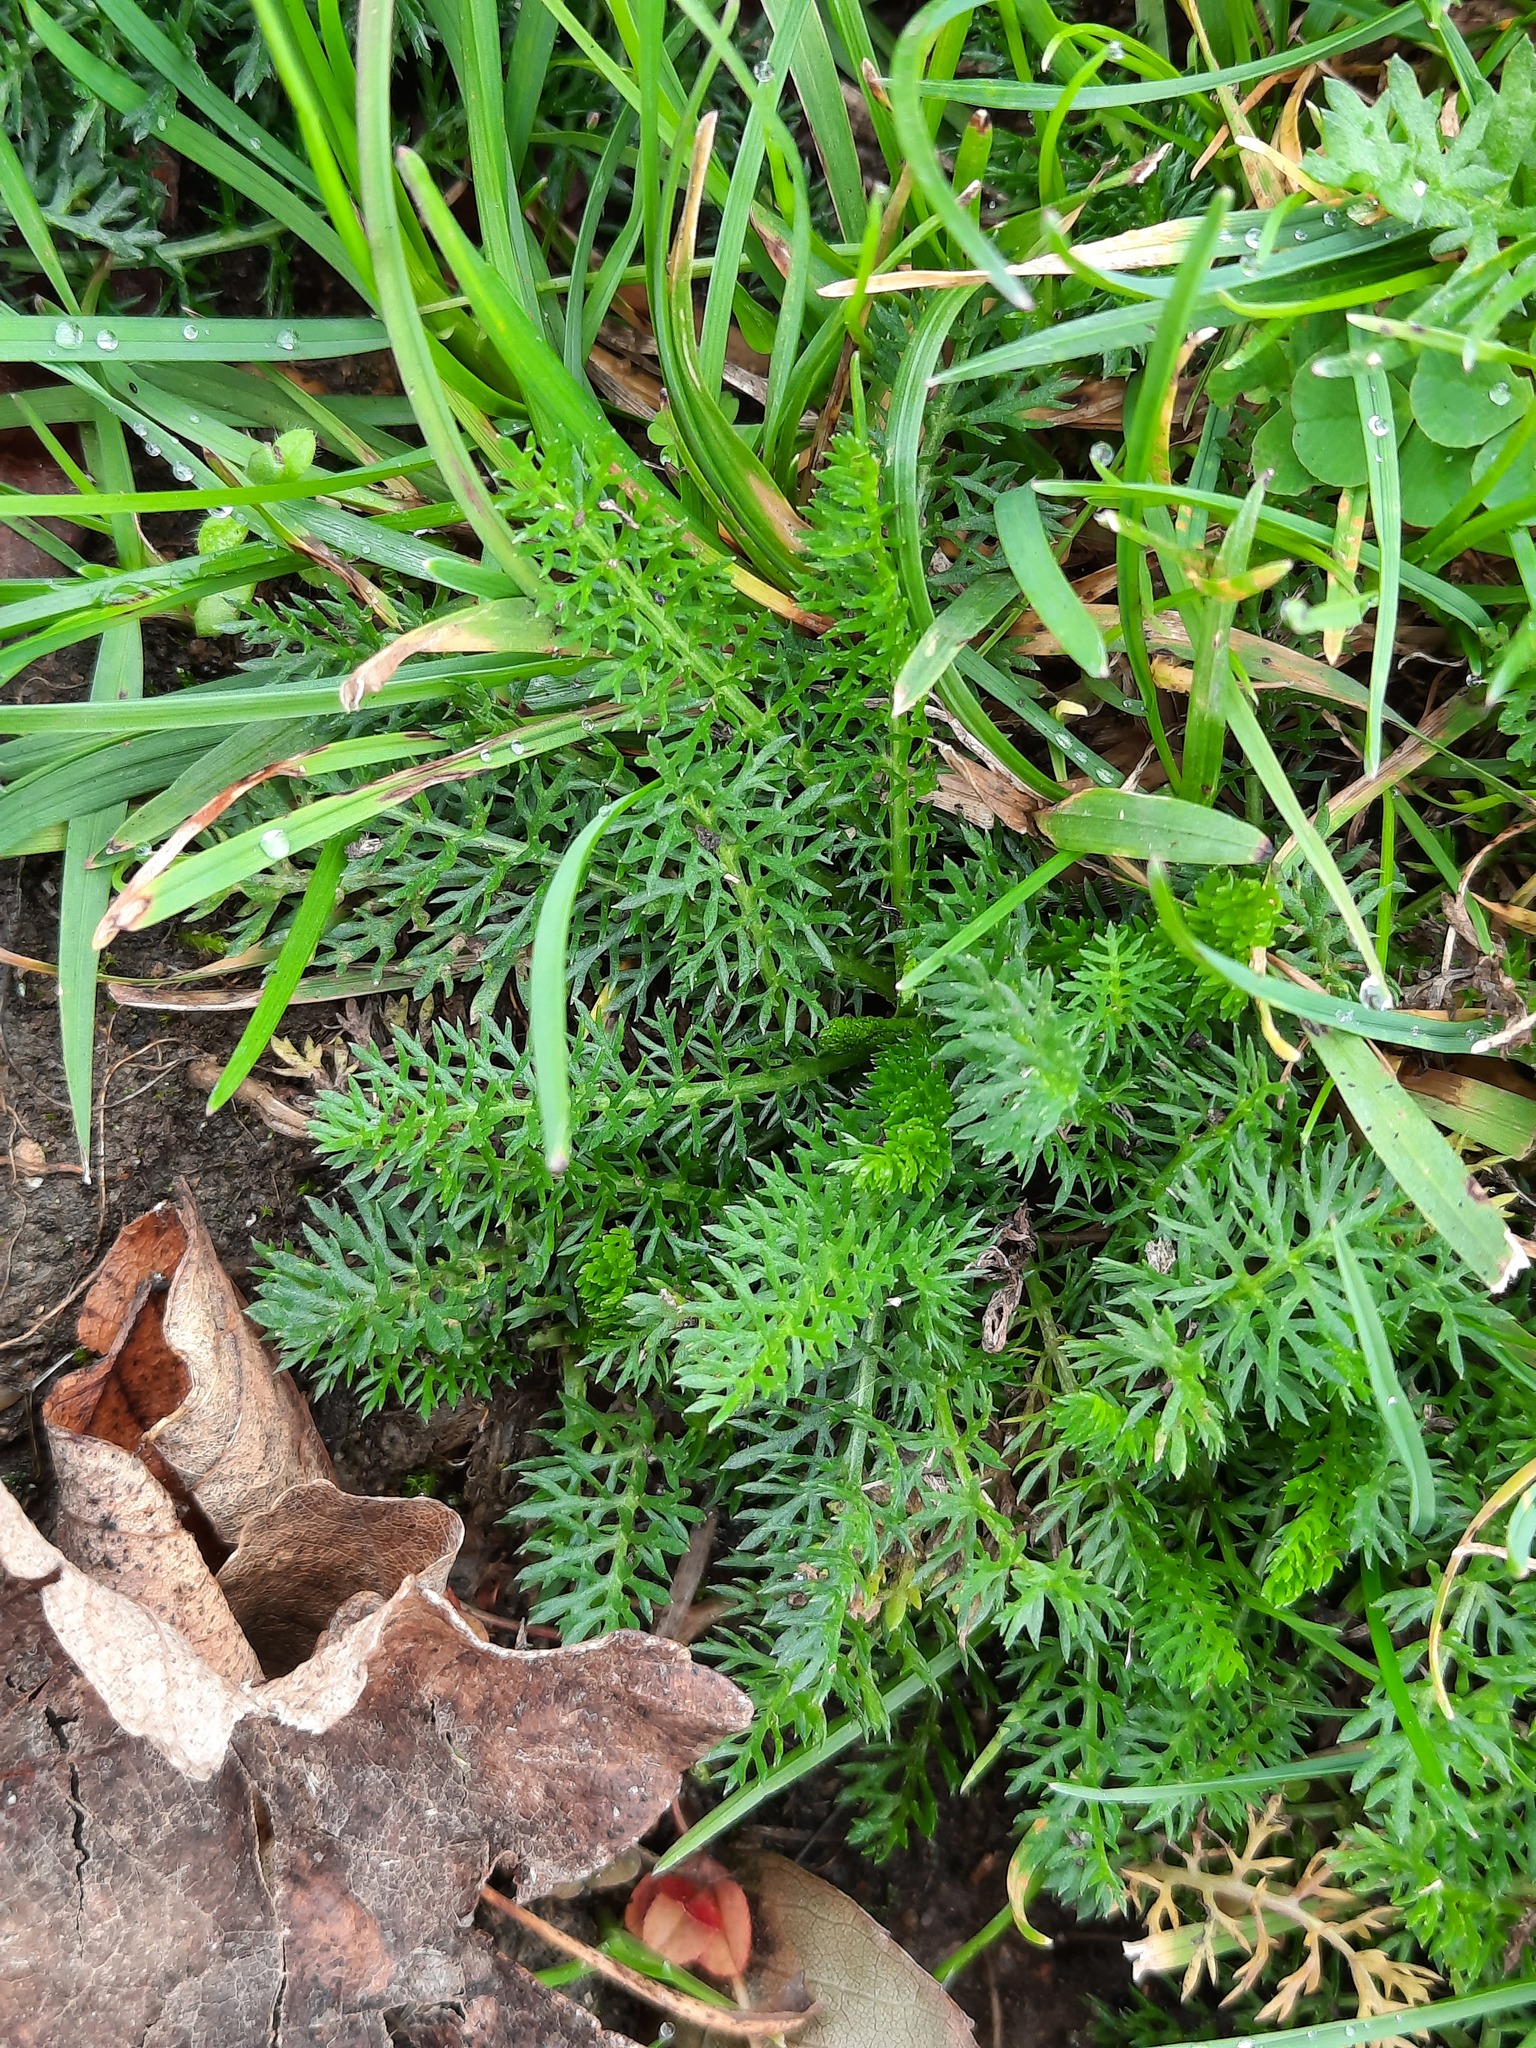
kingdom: Plantae
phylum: Tracheophyta
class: Magnoliopsida
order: Asterales
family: Asteraceae
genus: Achillea
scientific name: Achillea millefolium
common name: Yarrow
